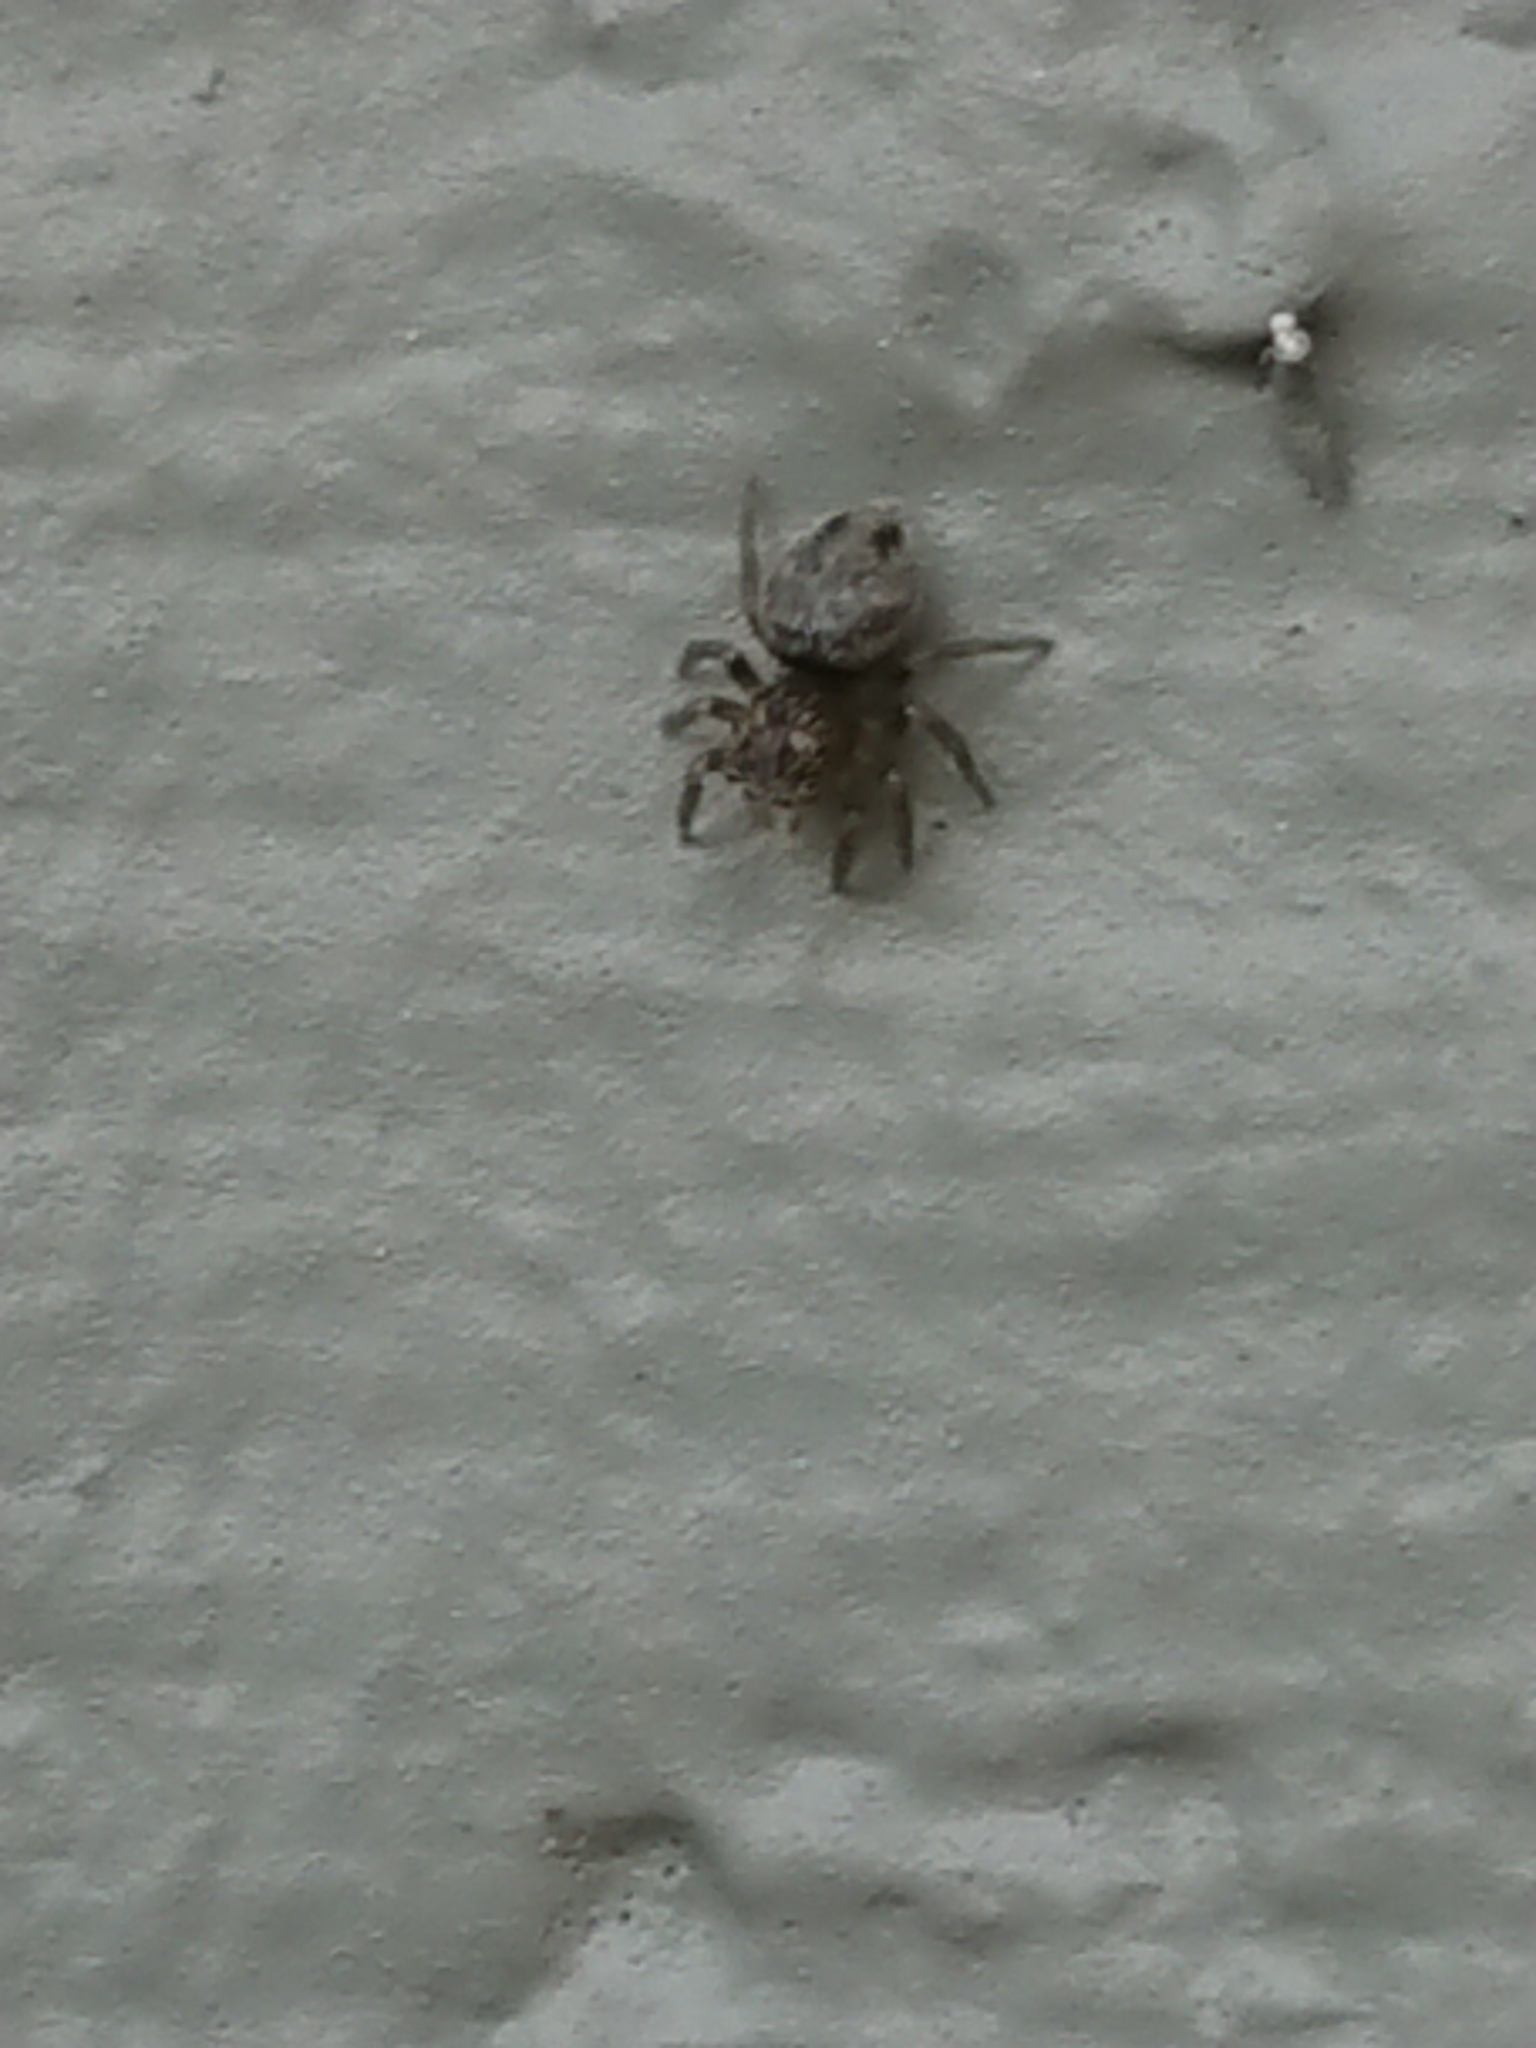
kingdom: Animalia
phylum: Arthropoda
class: Arachnida
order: Araneae
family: Salticidae
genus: Marpissa
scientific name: Marpissa marina
